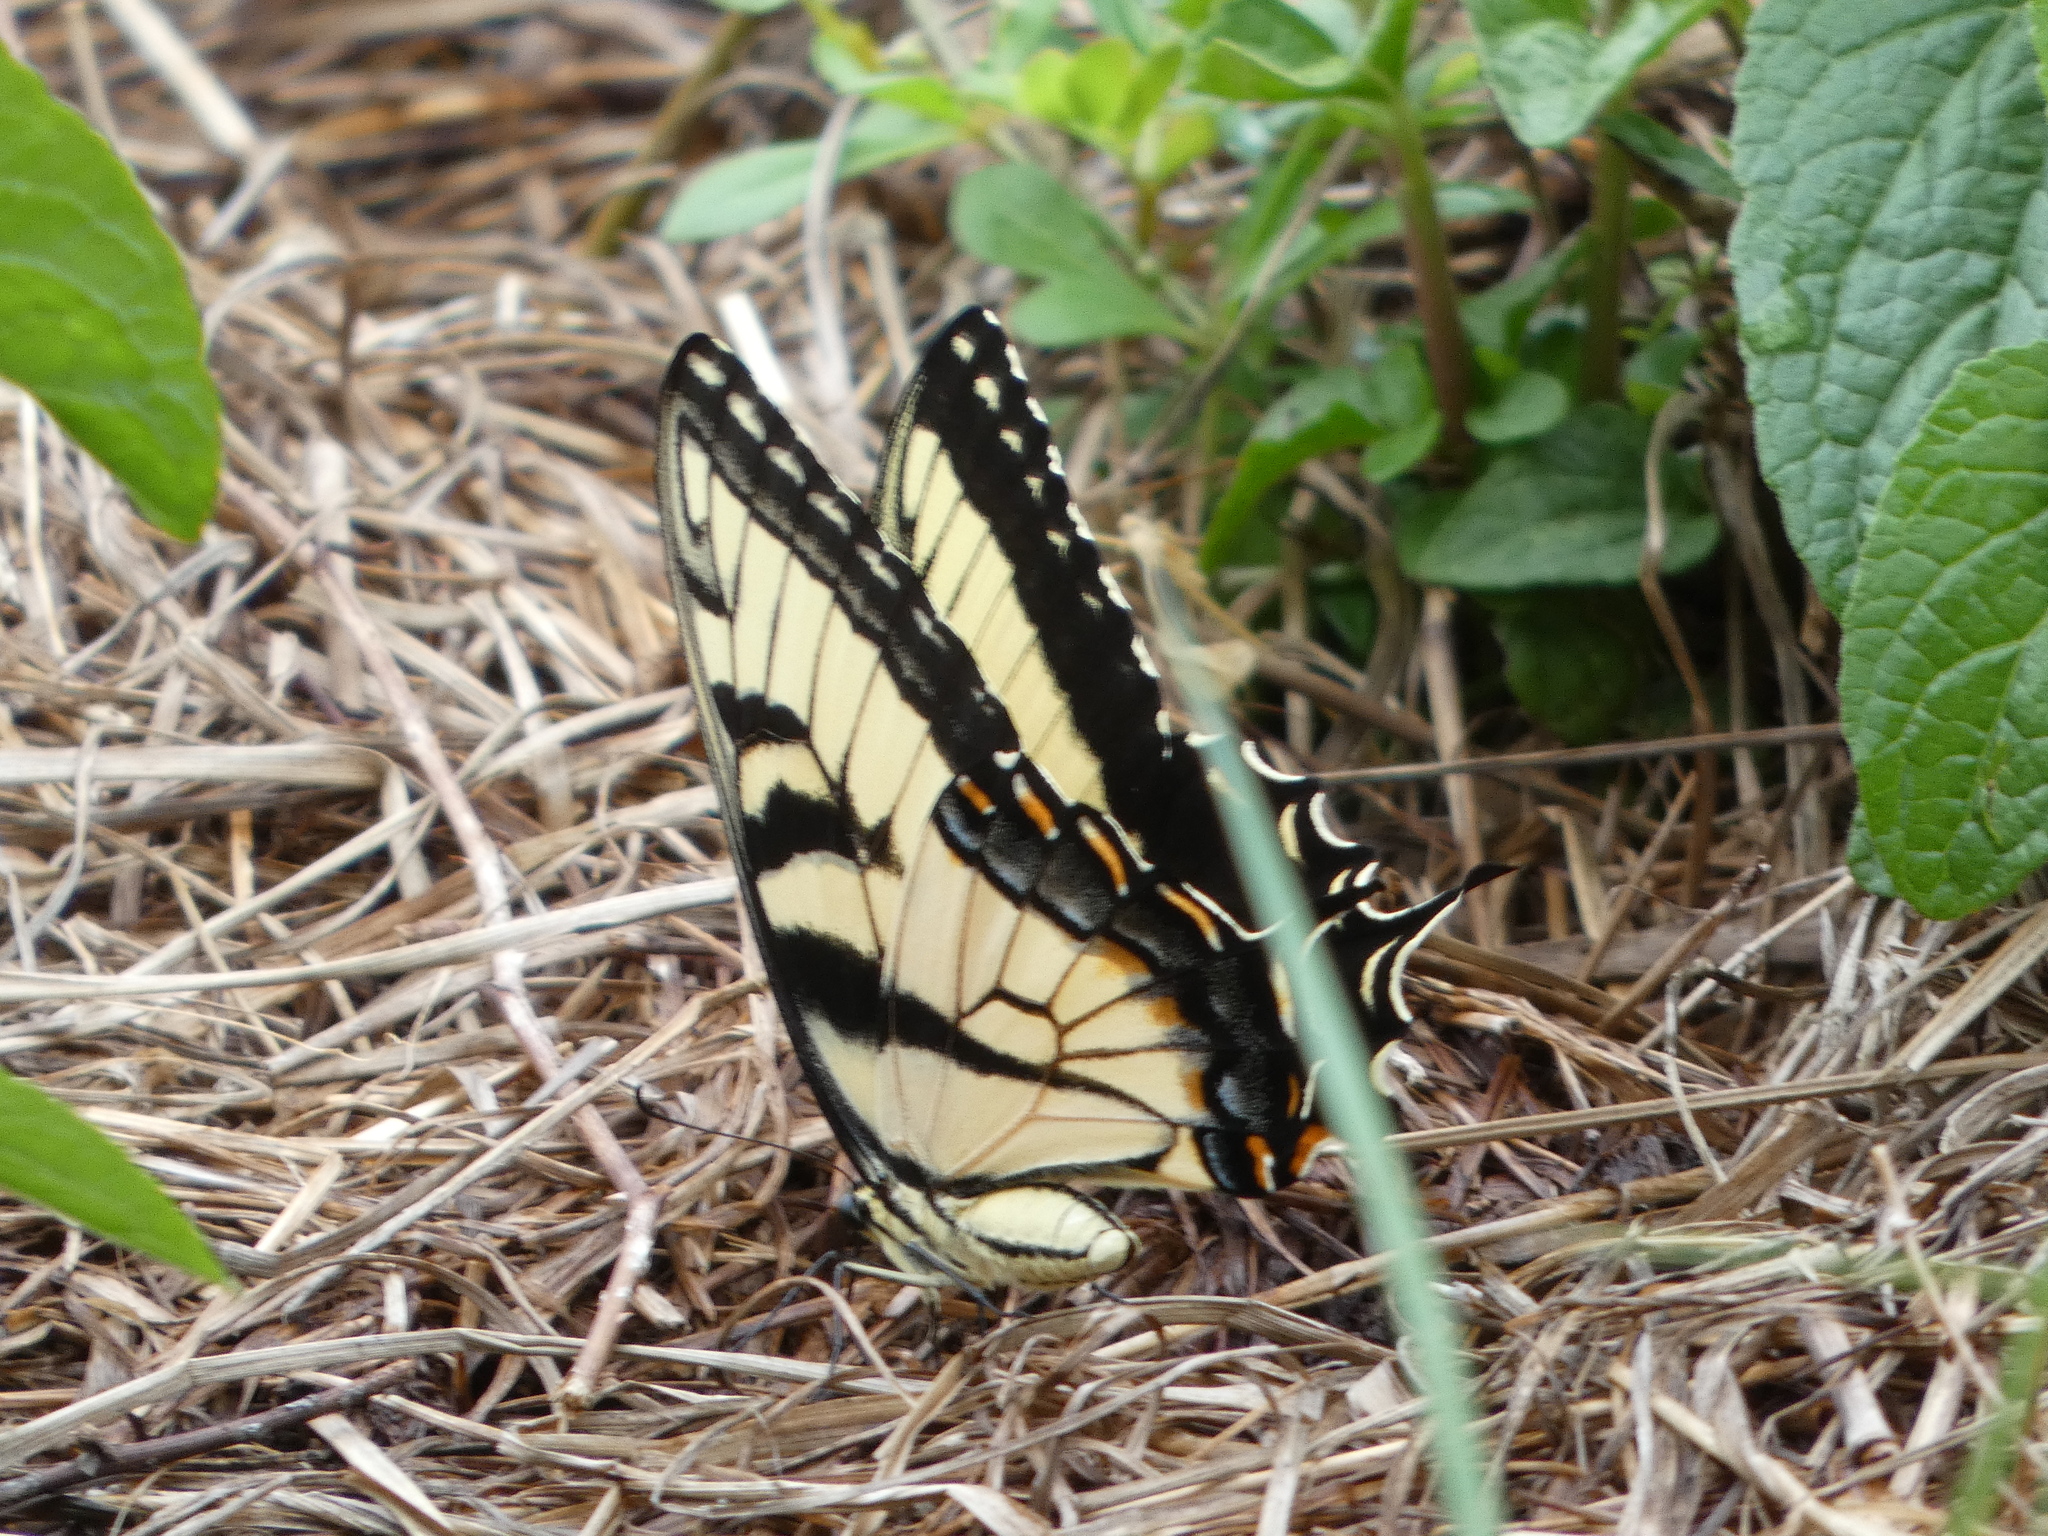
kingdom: Animalia
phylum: Arthropoda
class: Insecta
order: Lepidoptera
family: Papilionidae
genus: Papilio
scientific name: Papilio glaucus
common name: Tiger swallowtail
